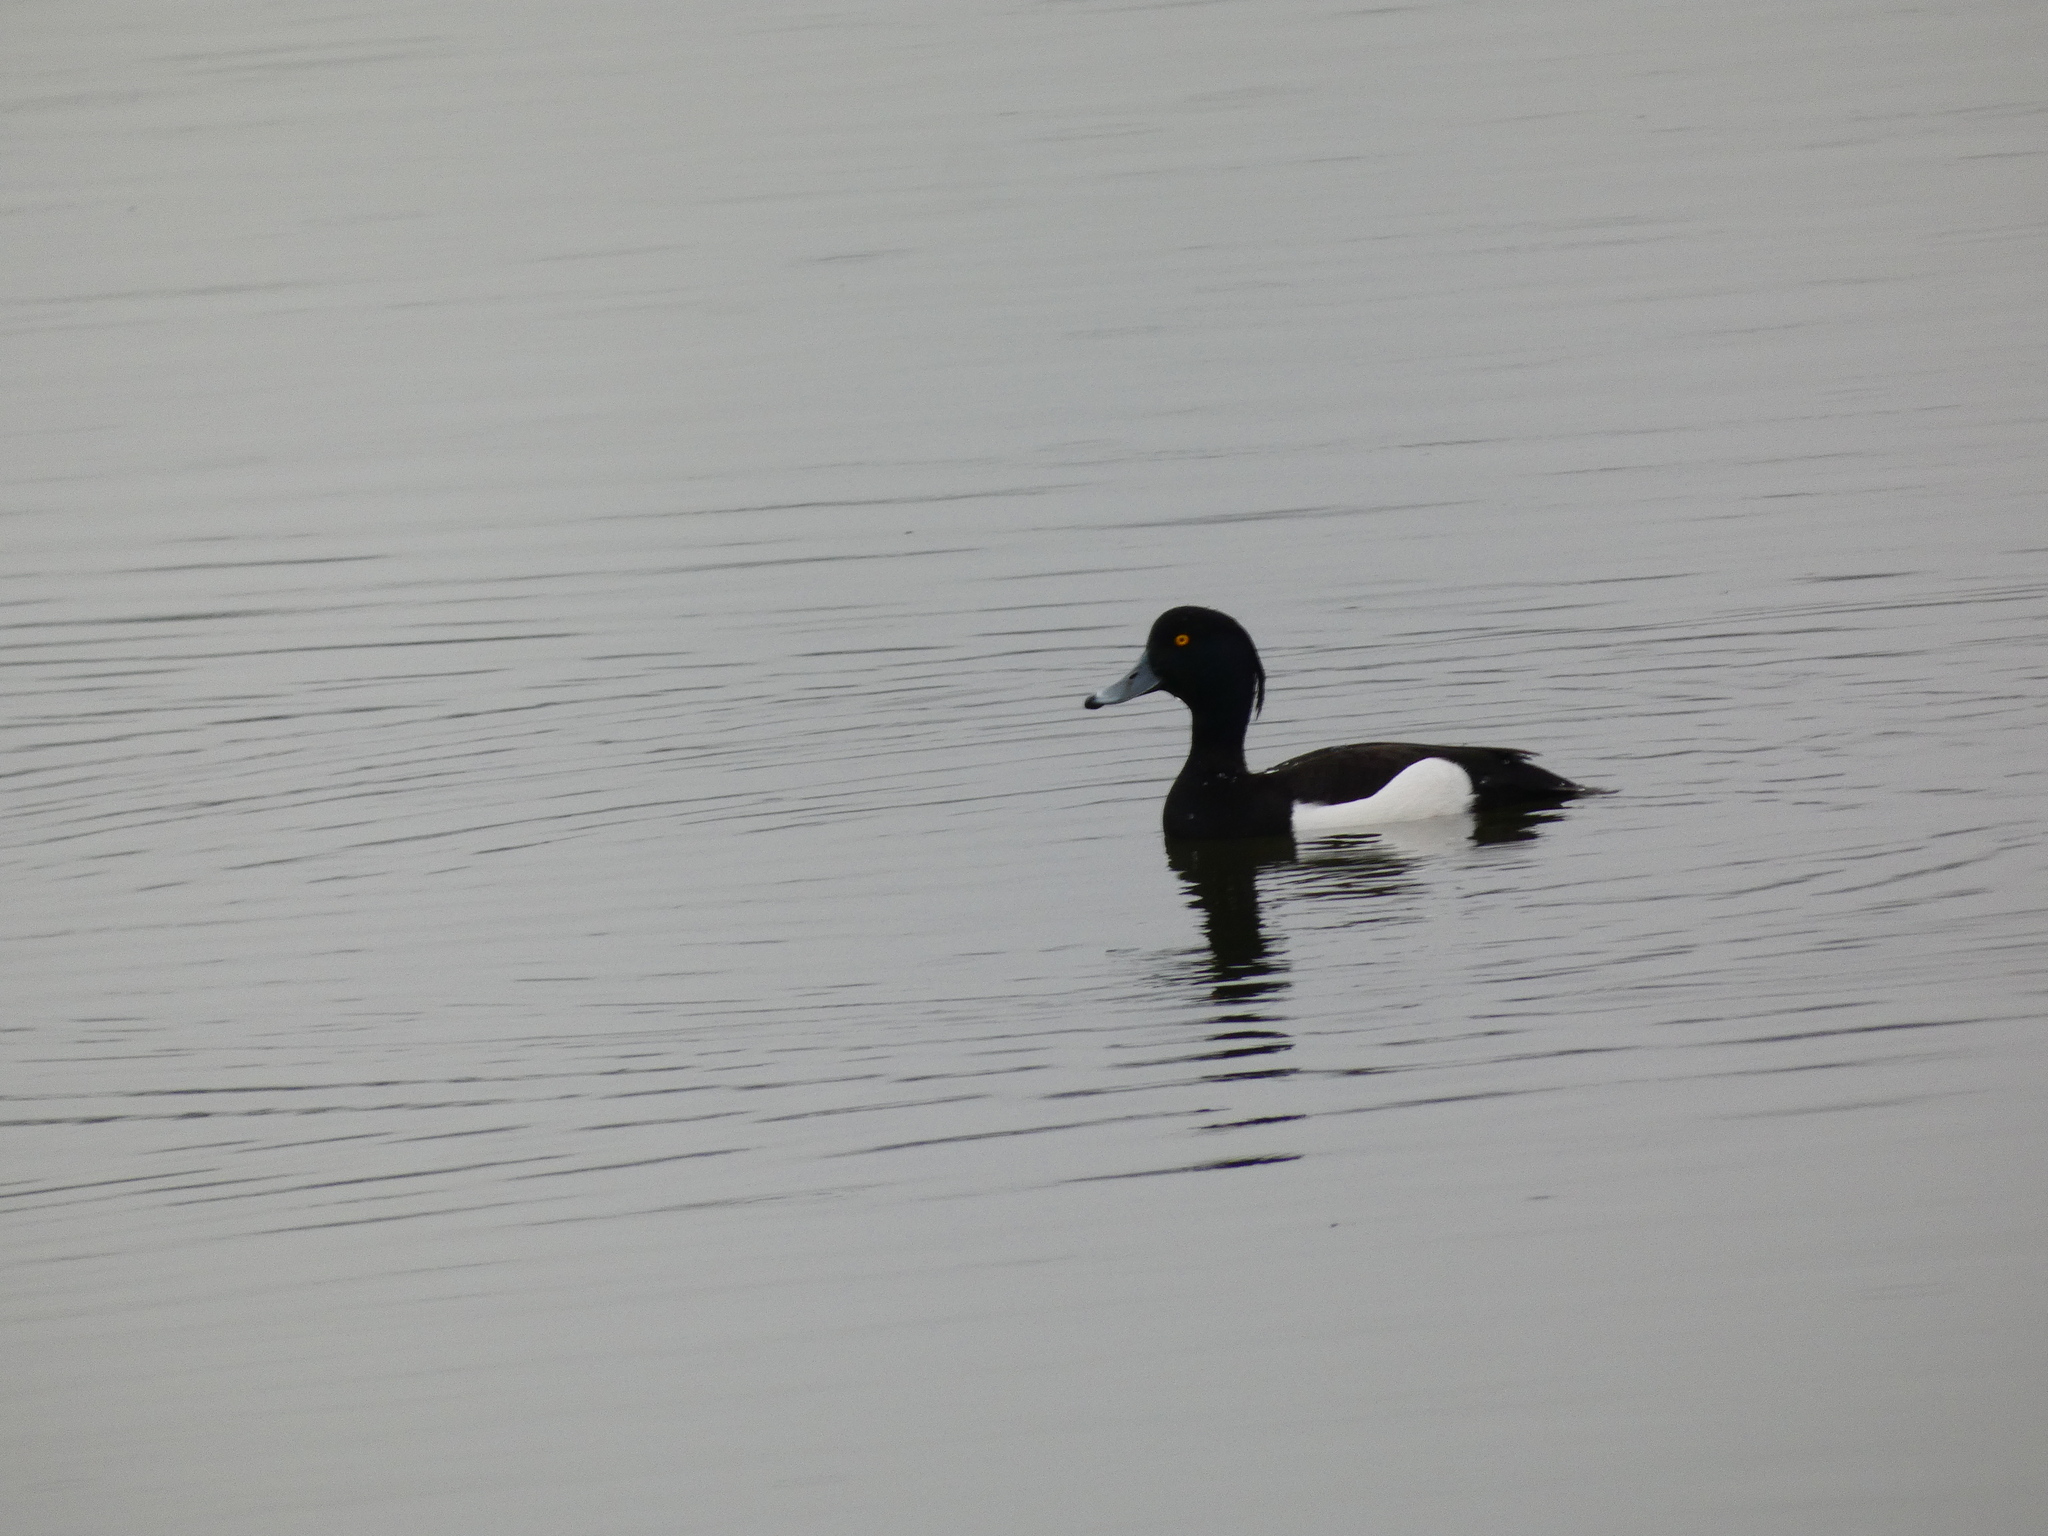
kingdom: Animalia
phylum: Chordata
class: Aves
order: Anseriformes
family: Anatidae
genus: Aythya
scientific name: Aythya fuligula
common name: Tufted duck
